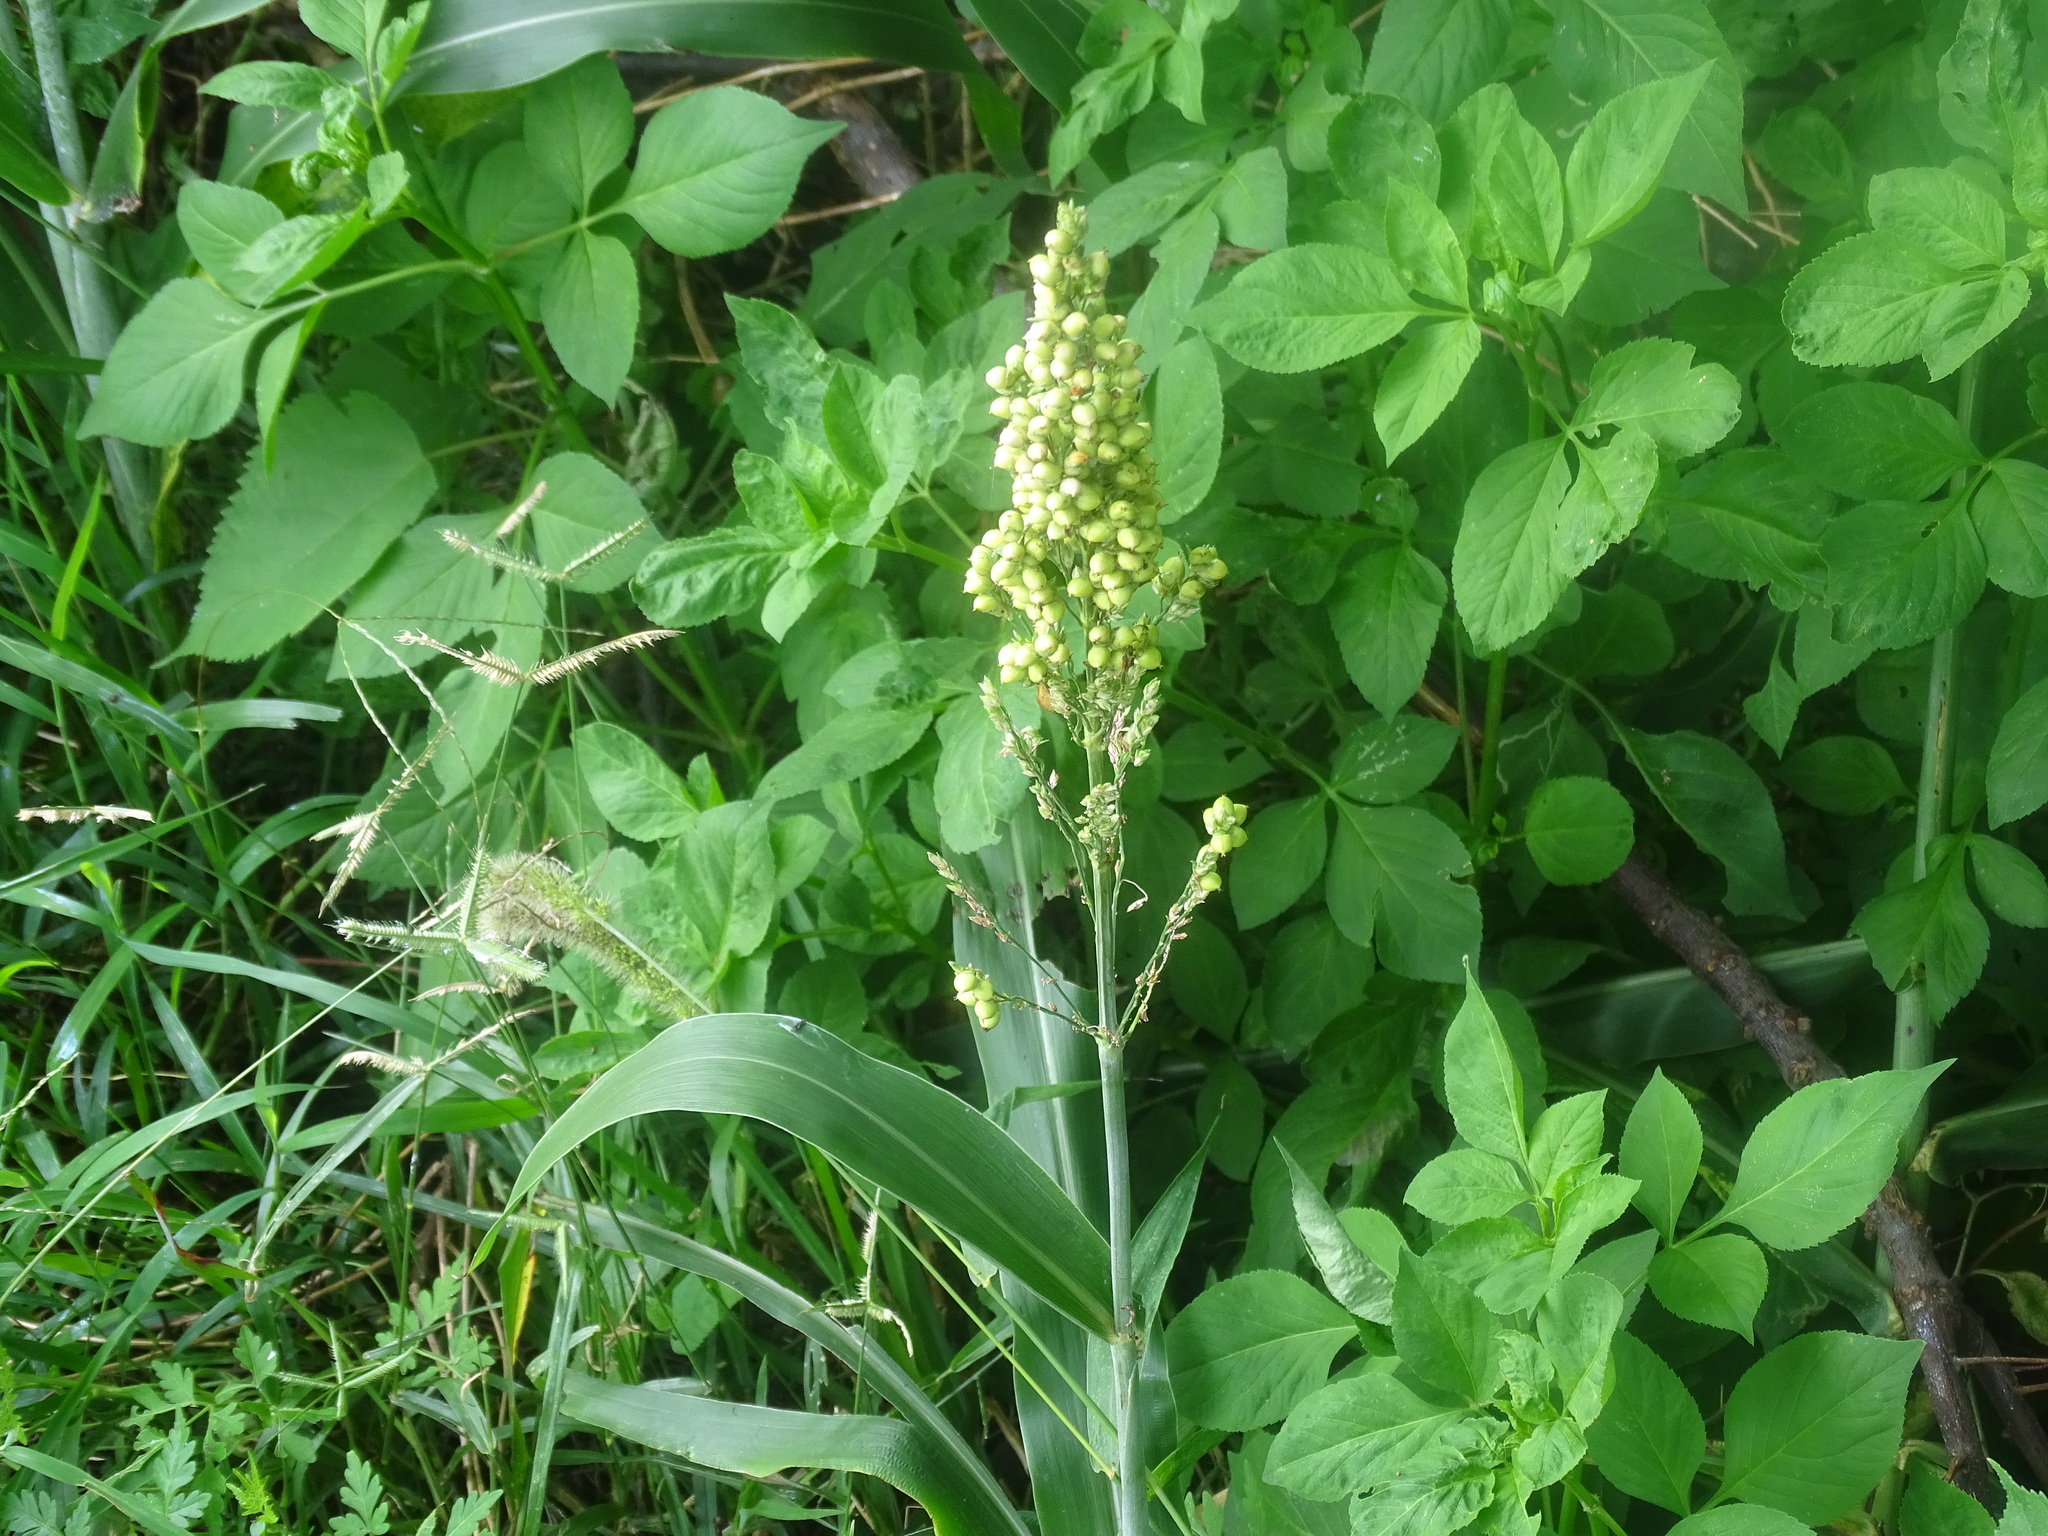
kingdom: Plantae
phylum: Tracheophyta
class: Liliopsida
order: Poales
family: Poaceae
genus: Sorghum
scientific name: Sorghum bicolor
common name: Sorghum
